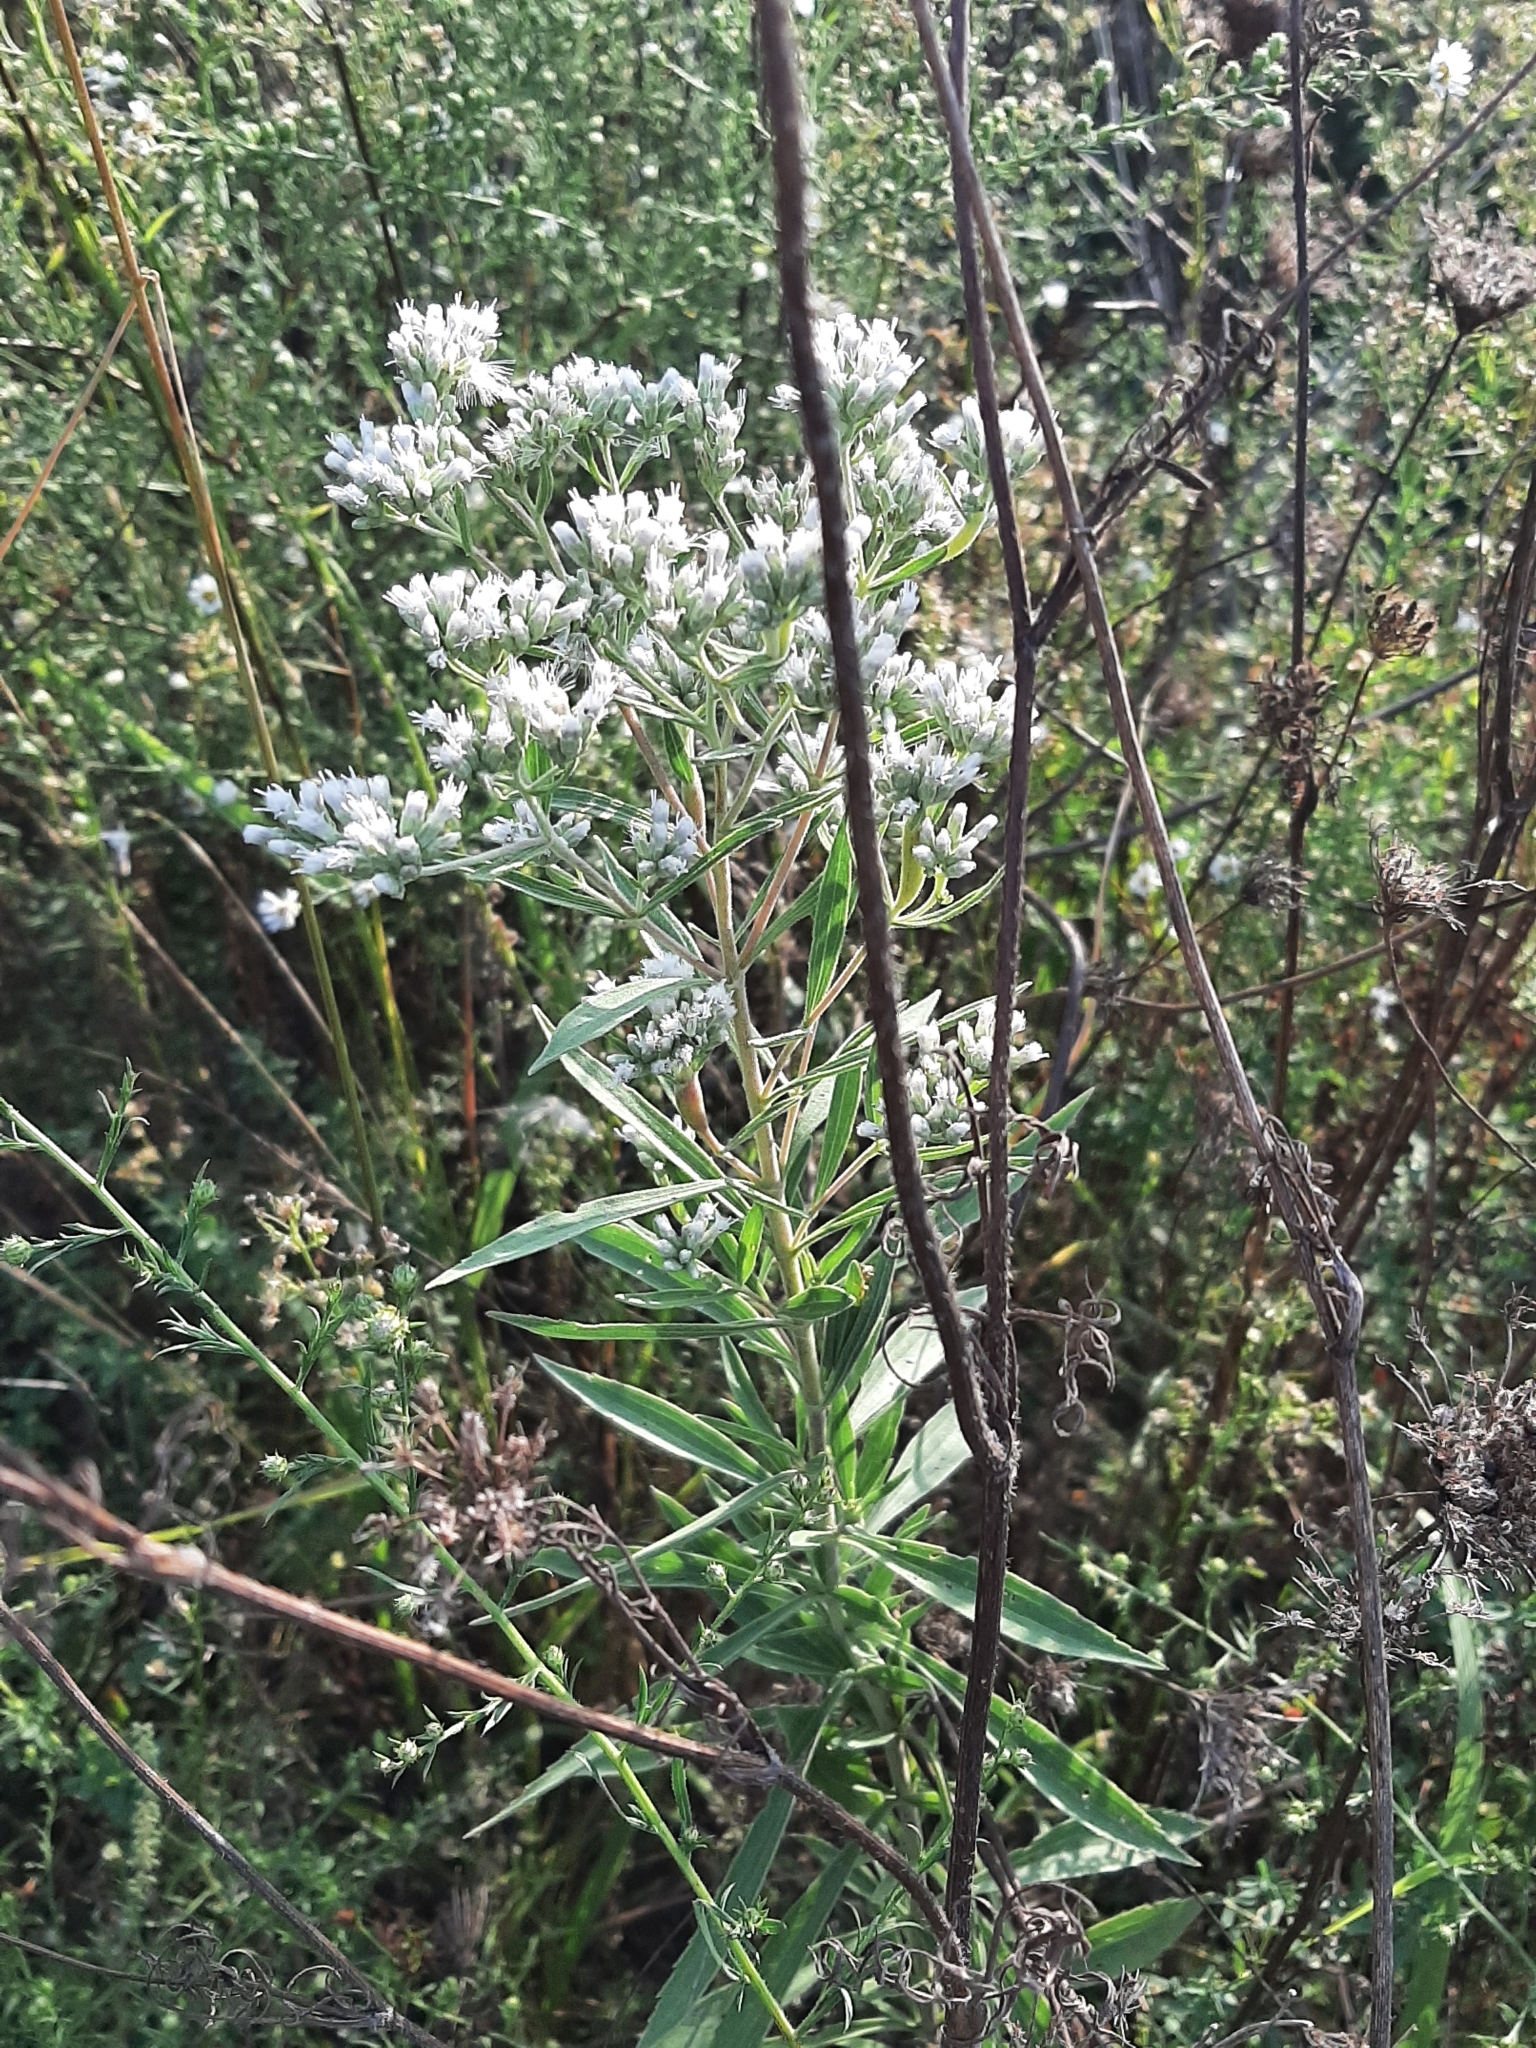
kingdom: Plantae
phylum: Tracheophyta
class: Magnoliopsida
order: Asterales
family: Asteraceae
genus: Eupatorium
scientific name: Eupatorium altissimum
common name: Tall thoroughwort
